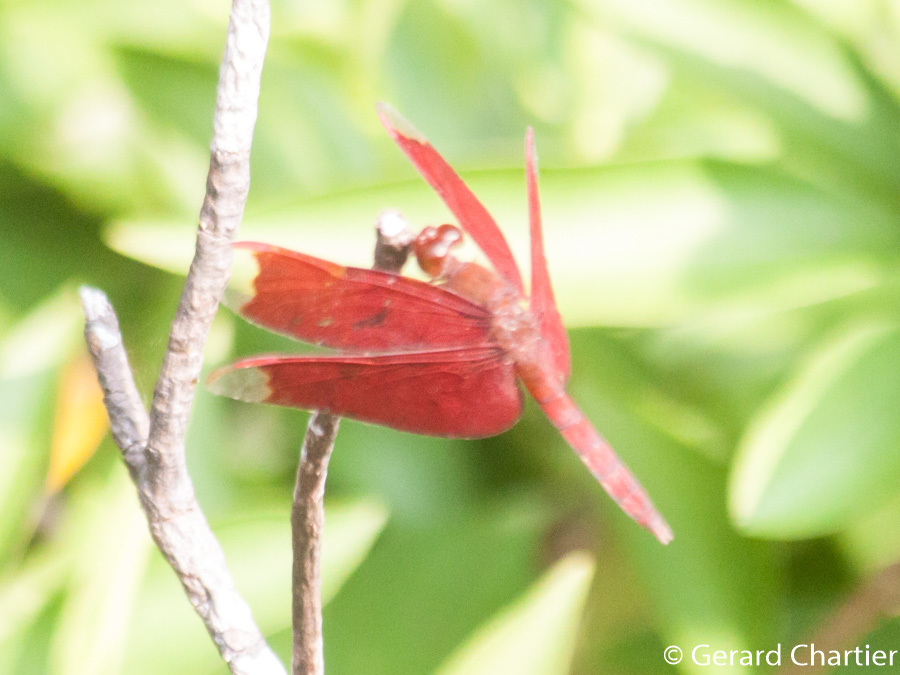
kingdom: Animalia
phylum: Arthropoda
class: Insecta
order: Odonata
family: Libellulidae
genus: Neurothemis
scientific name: Neurothemis fulvia
